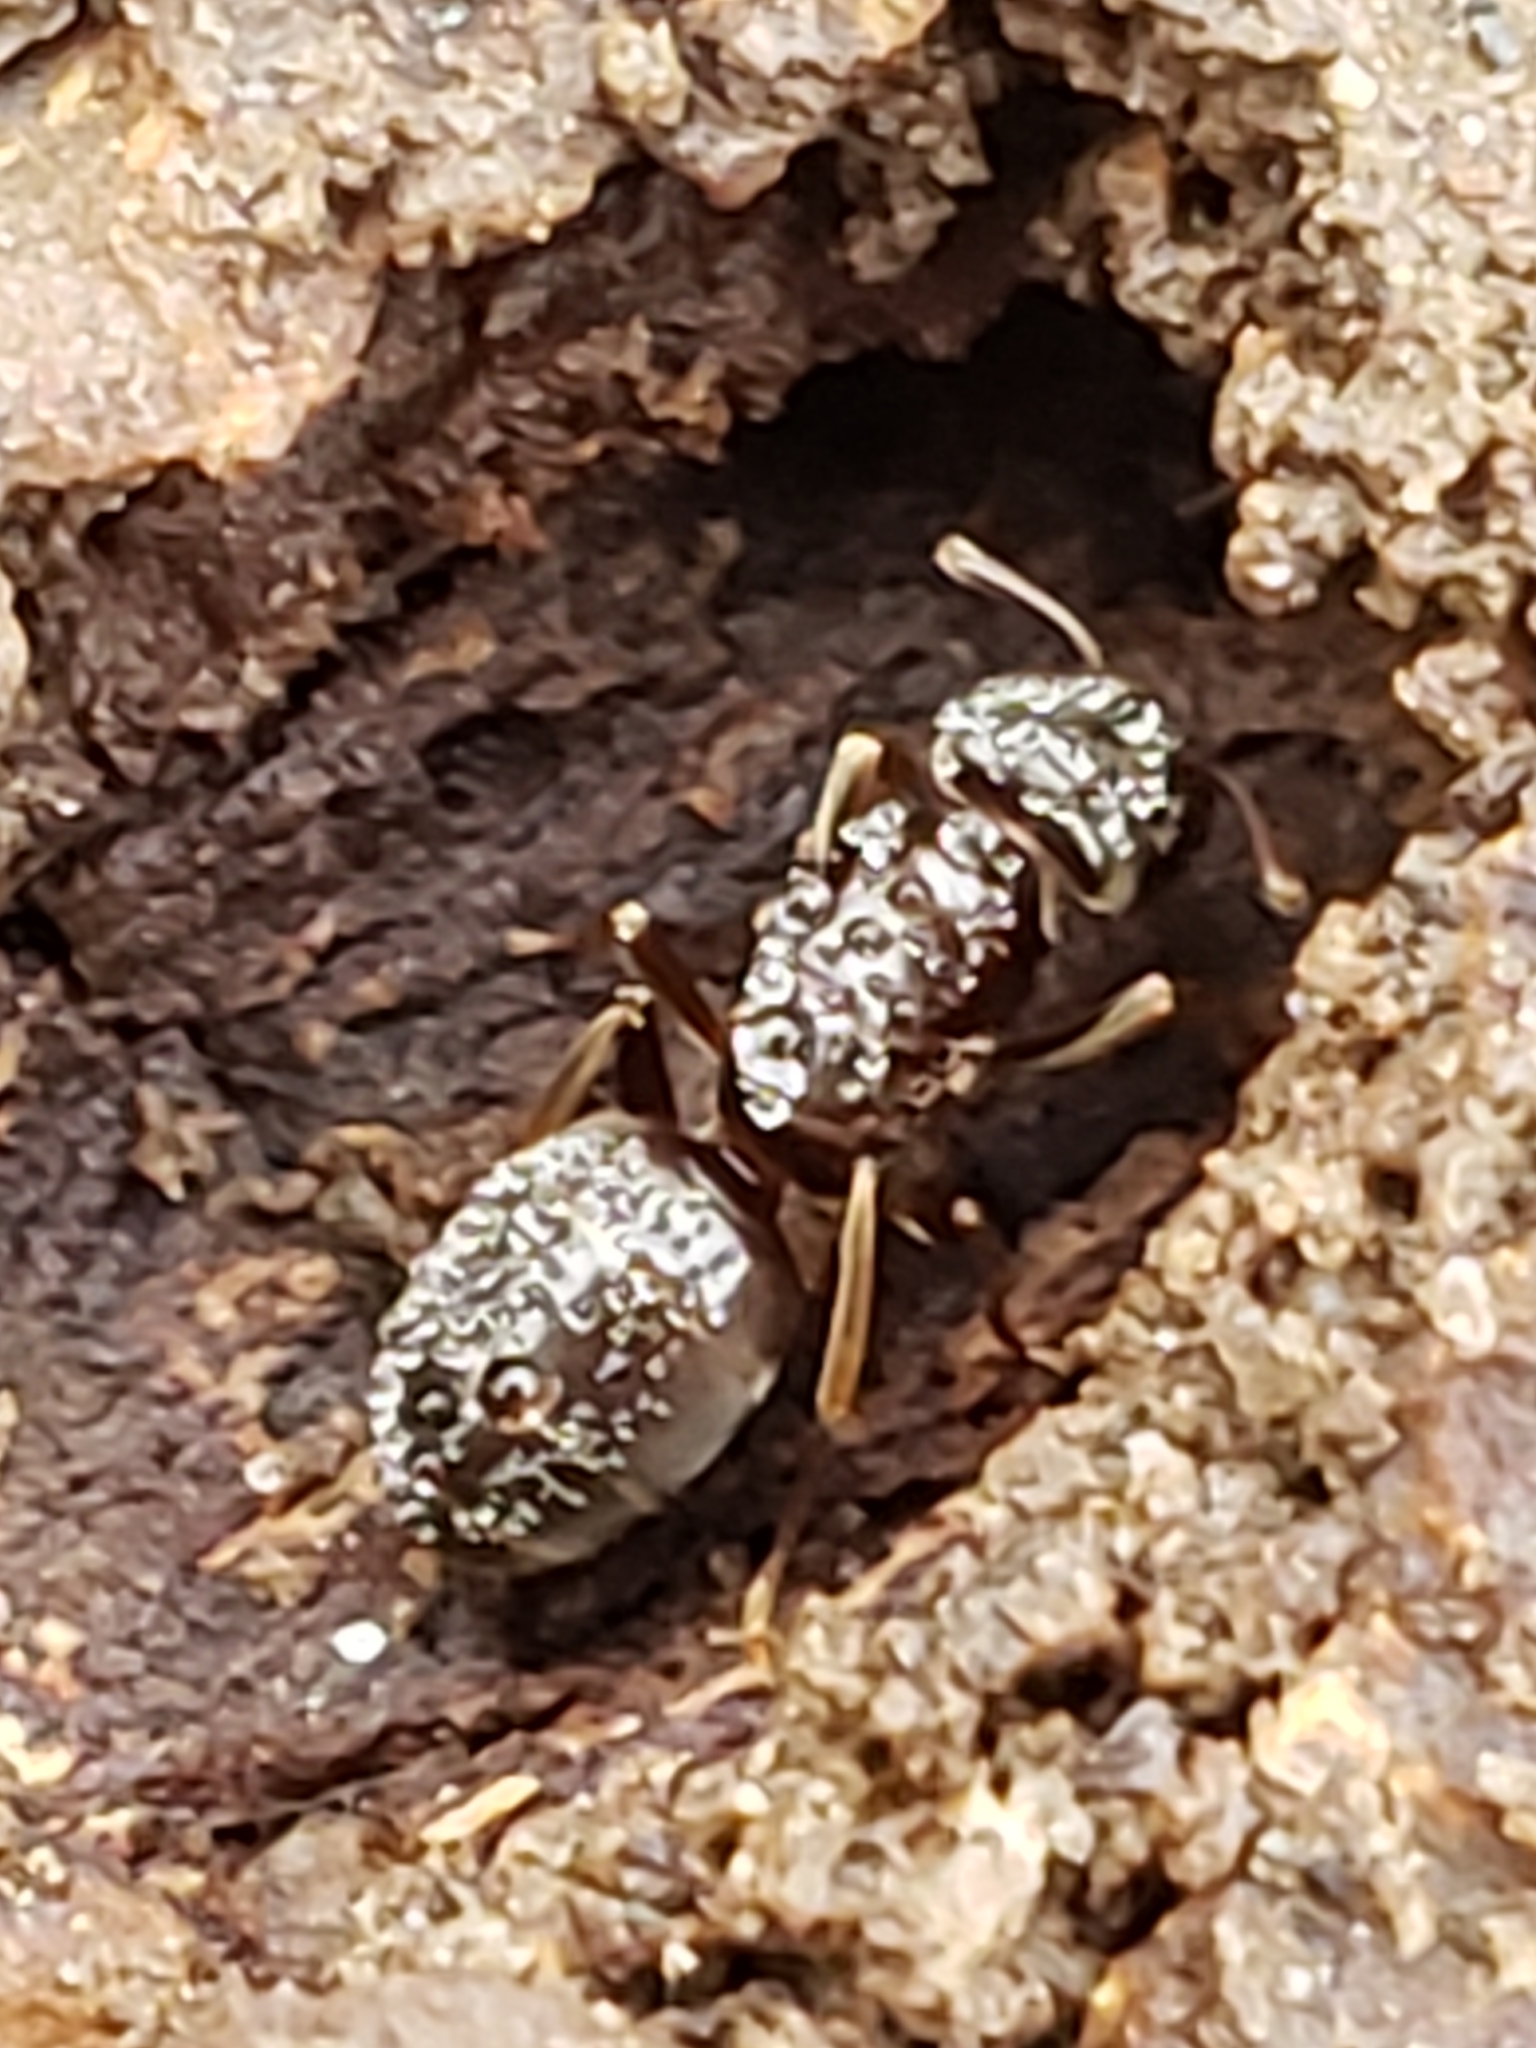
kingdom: Animalia
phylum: Arthropoda
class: Insecta
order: Hymenoptera
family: Formicidae
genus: Lasius
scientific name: Lasius aphidicola
